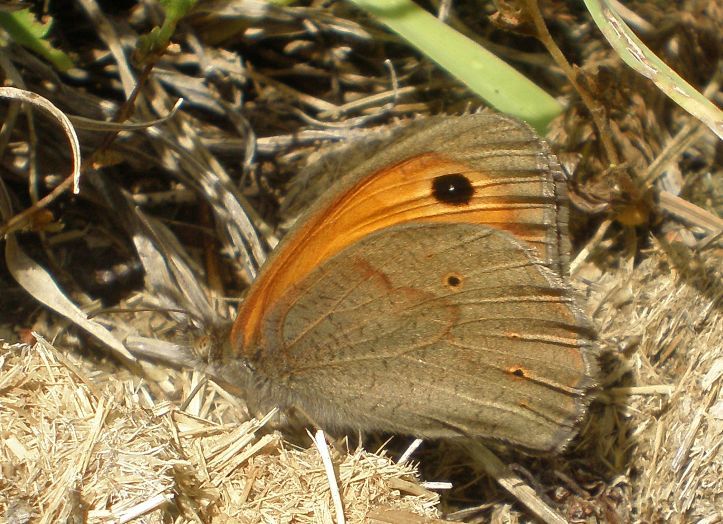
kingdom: Animalia
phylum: Arthropoda
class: Insecta
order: Lepidoptera
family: Nymphalidae
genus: Maniola
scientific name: Maniola jurtina
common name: Meadow brown
